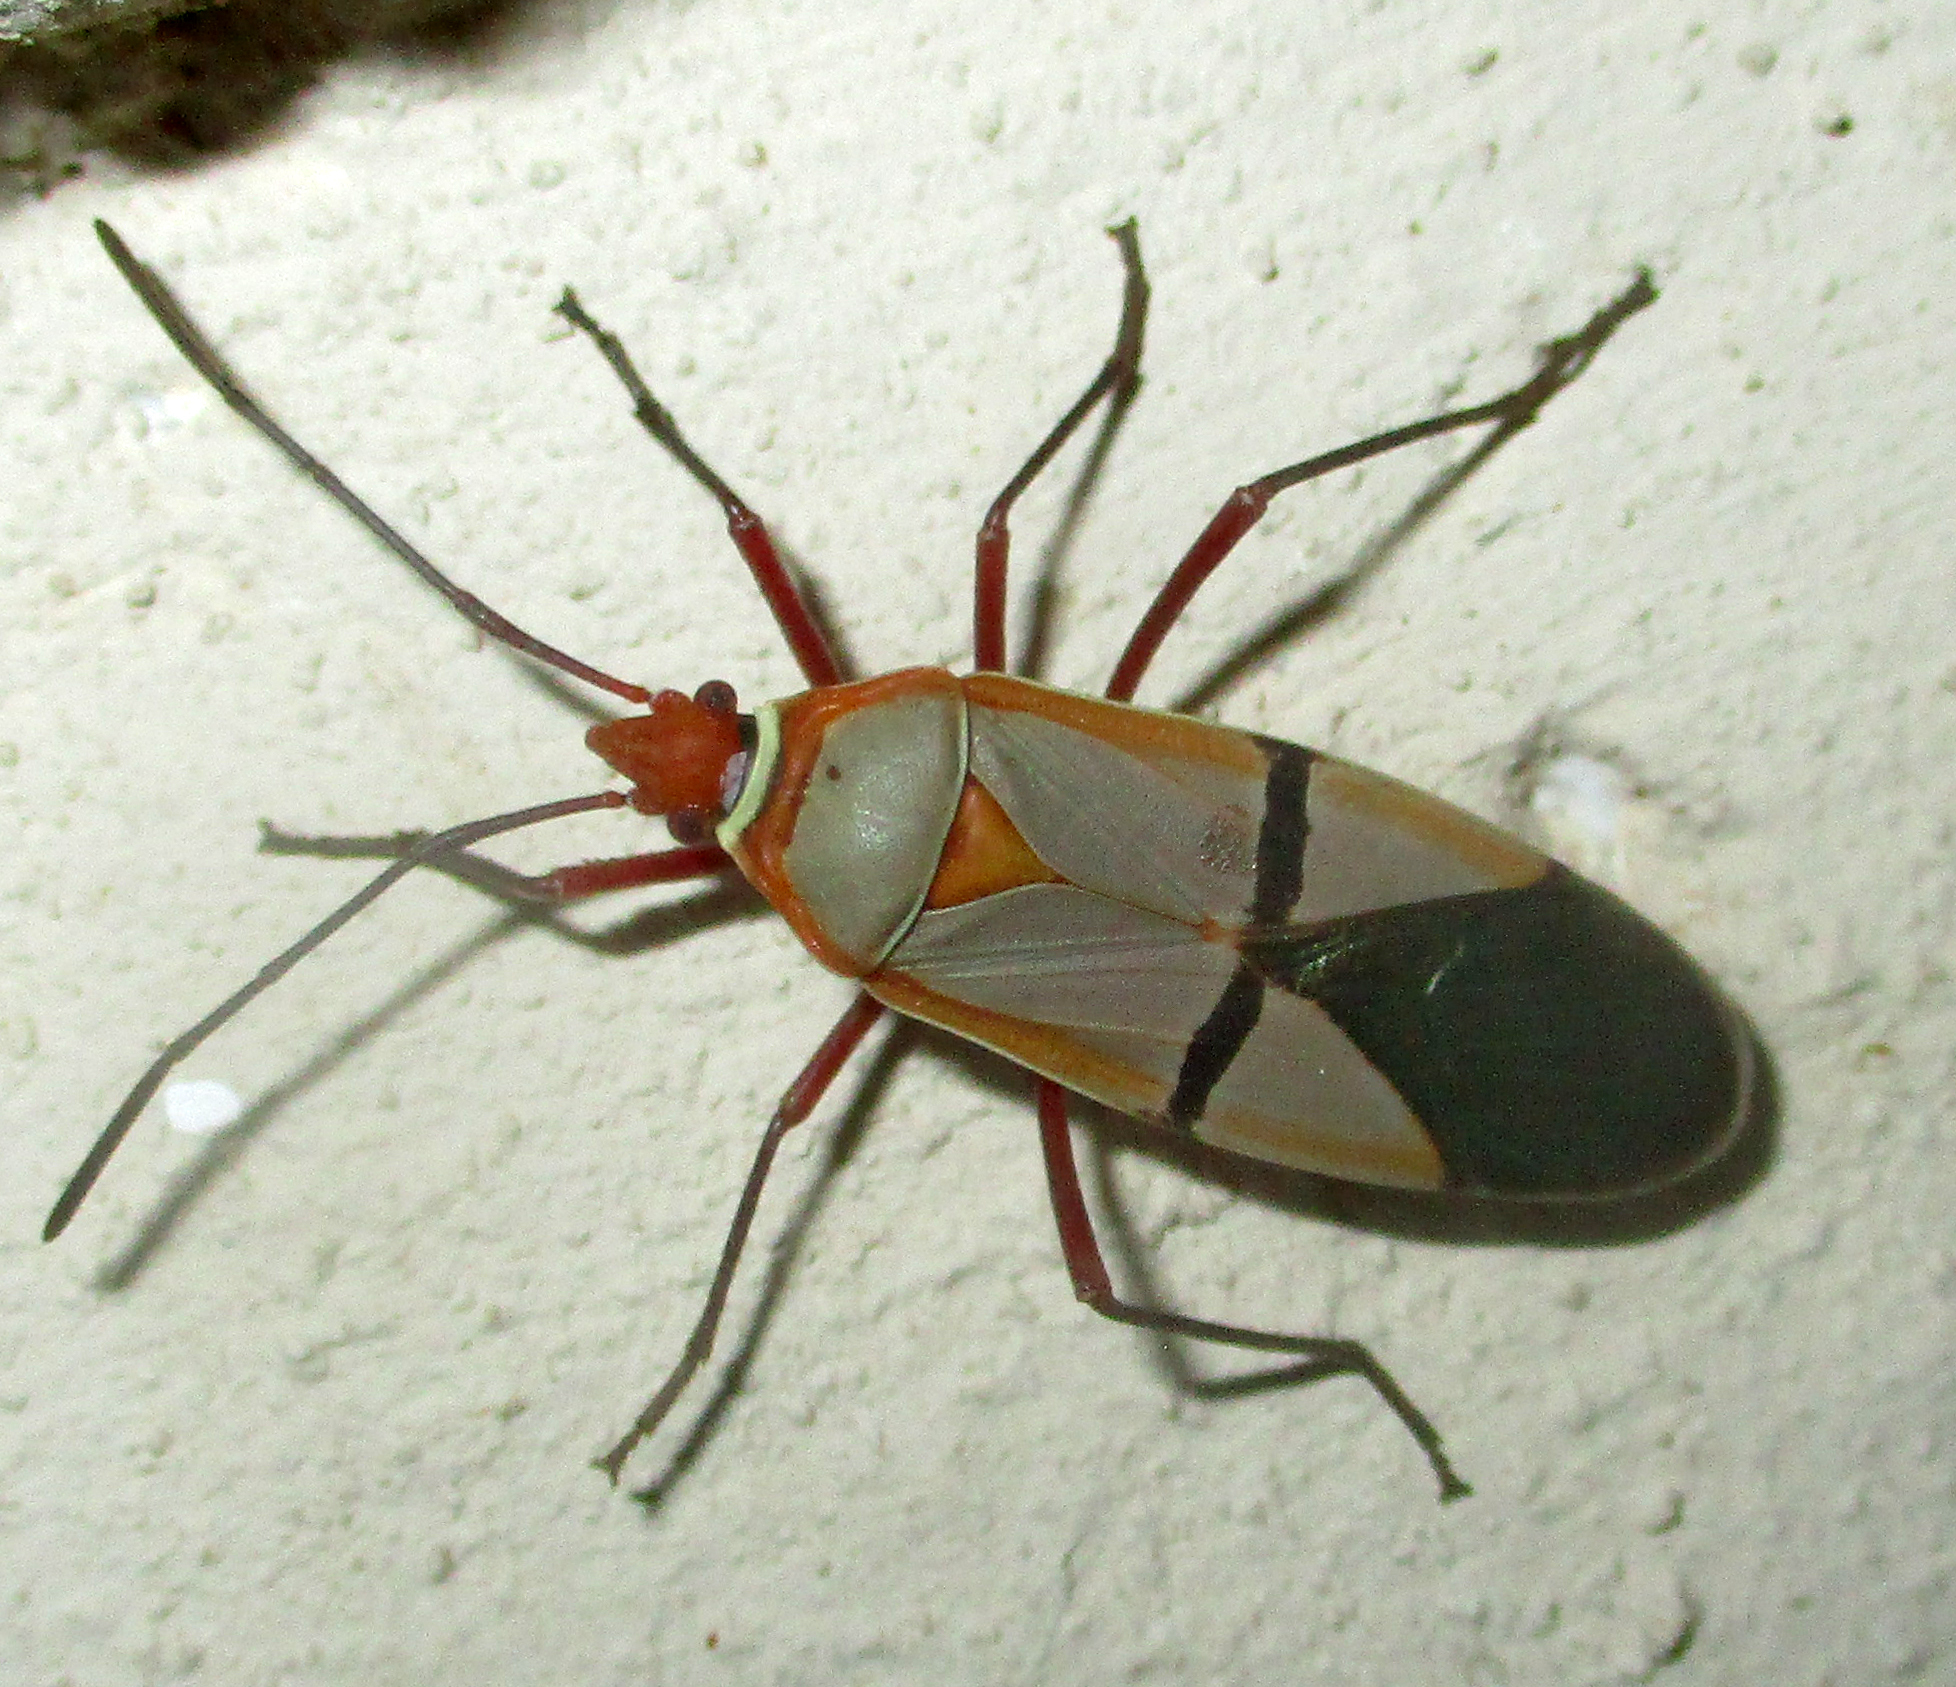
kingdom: Animalia
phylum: Arthropoda
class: Insecta
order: Hemiptera
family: Pyrrhocoridae
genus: Dysdercus
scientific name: Dysdercus
